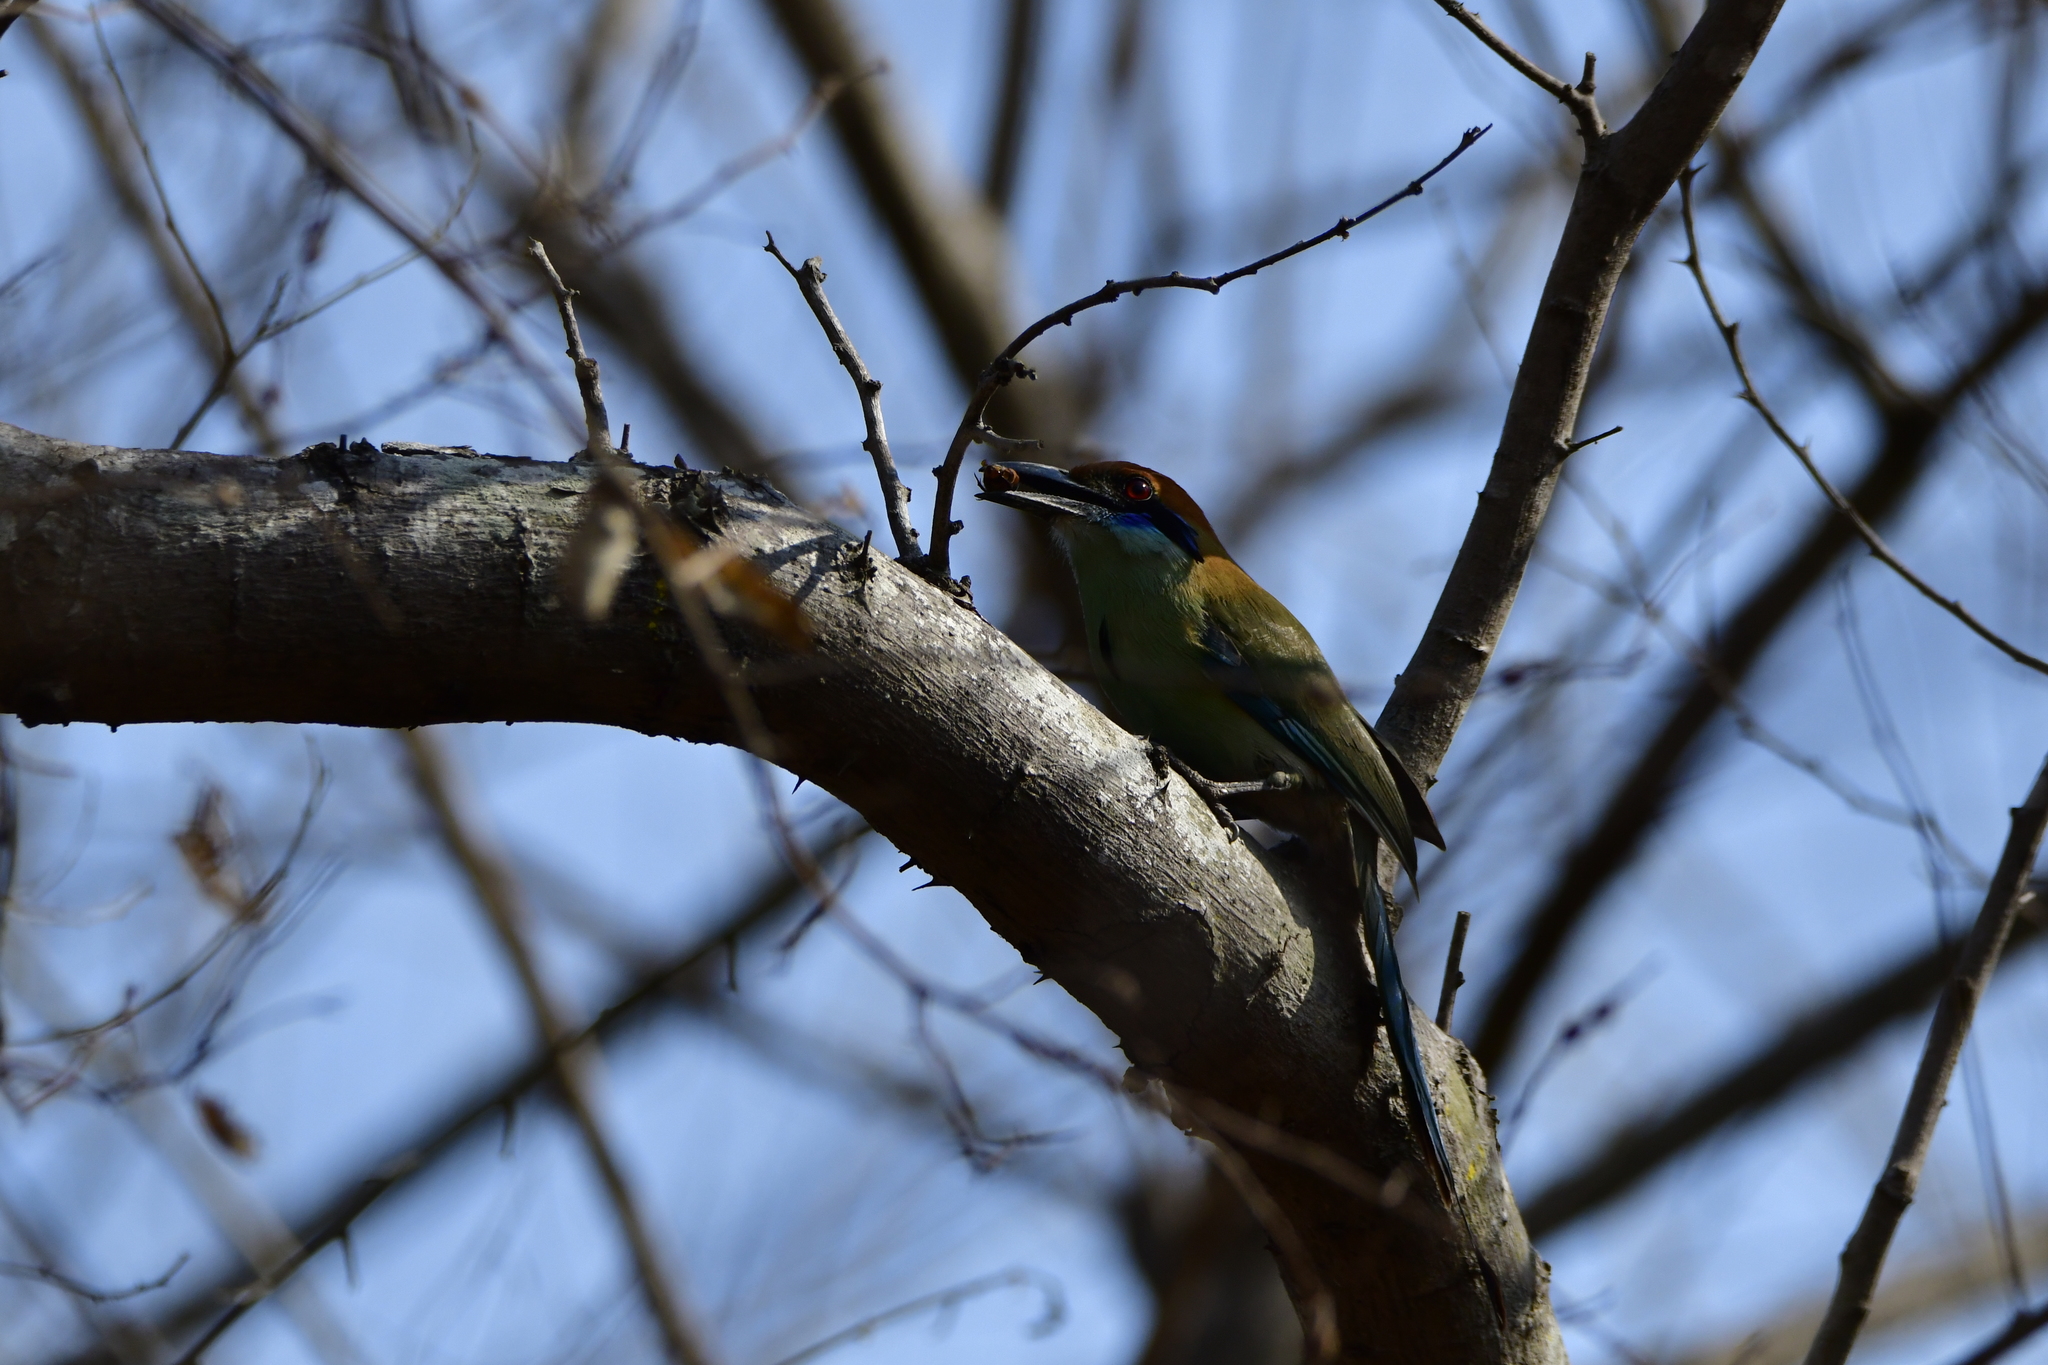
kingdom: Animalia
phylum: Chordata
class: Aves
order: Coraciiformes
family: Momotidae
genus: Momotus
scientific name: Momotus mexicanus
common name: Russet-crowned motmot
